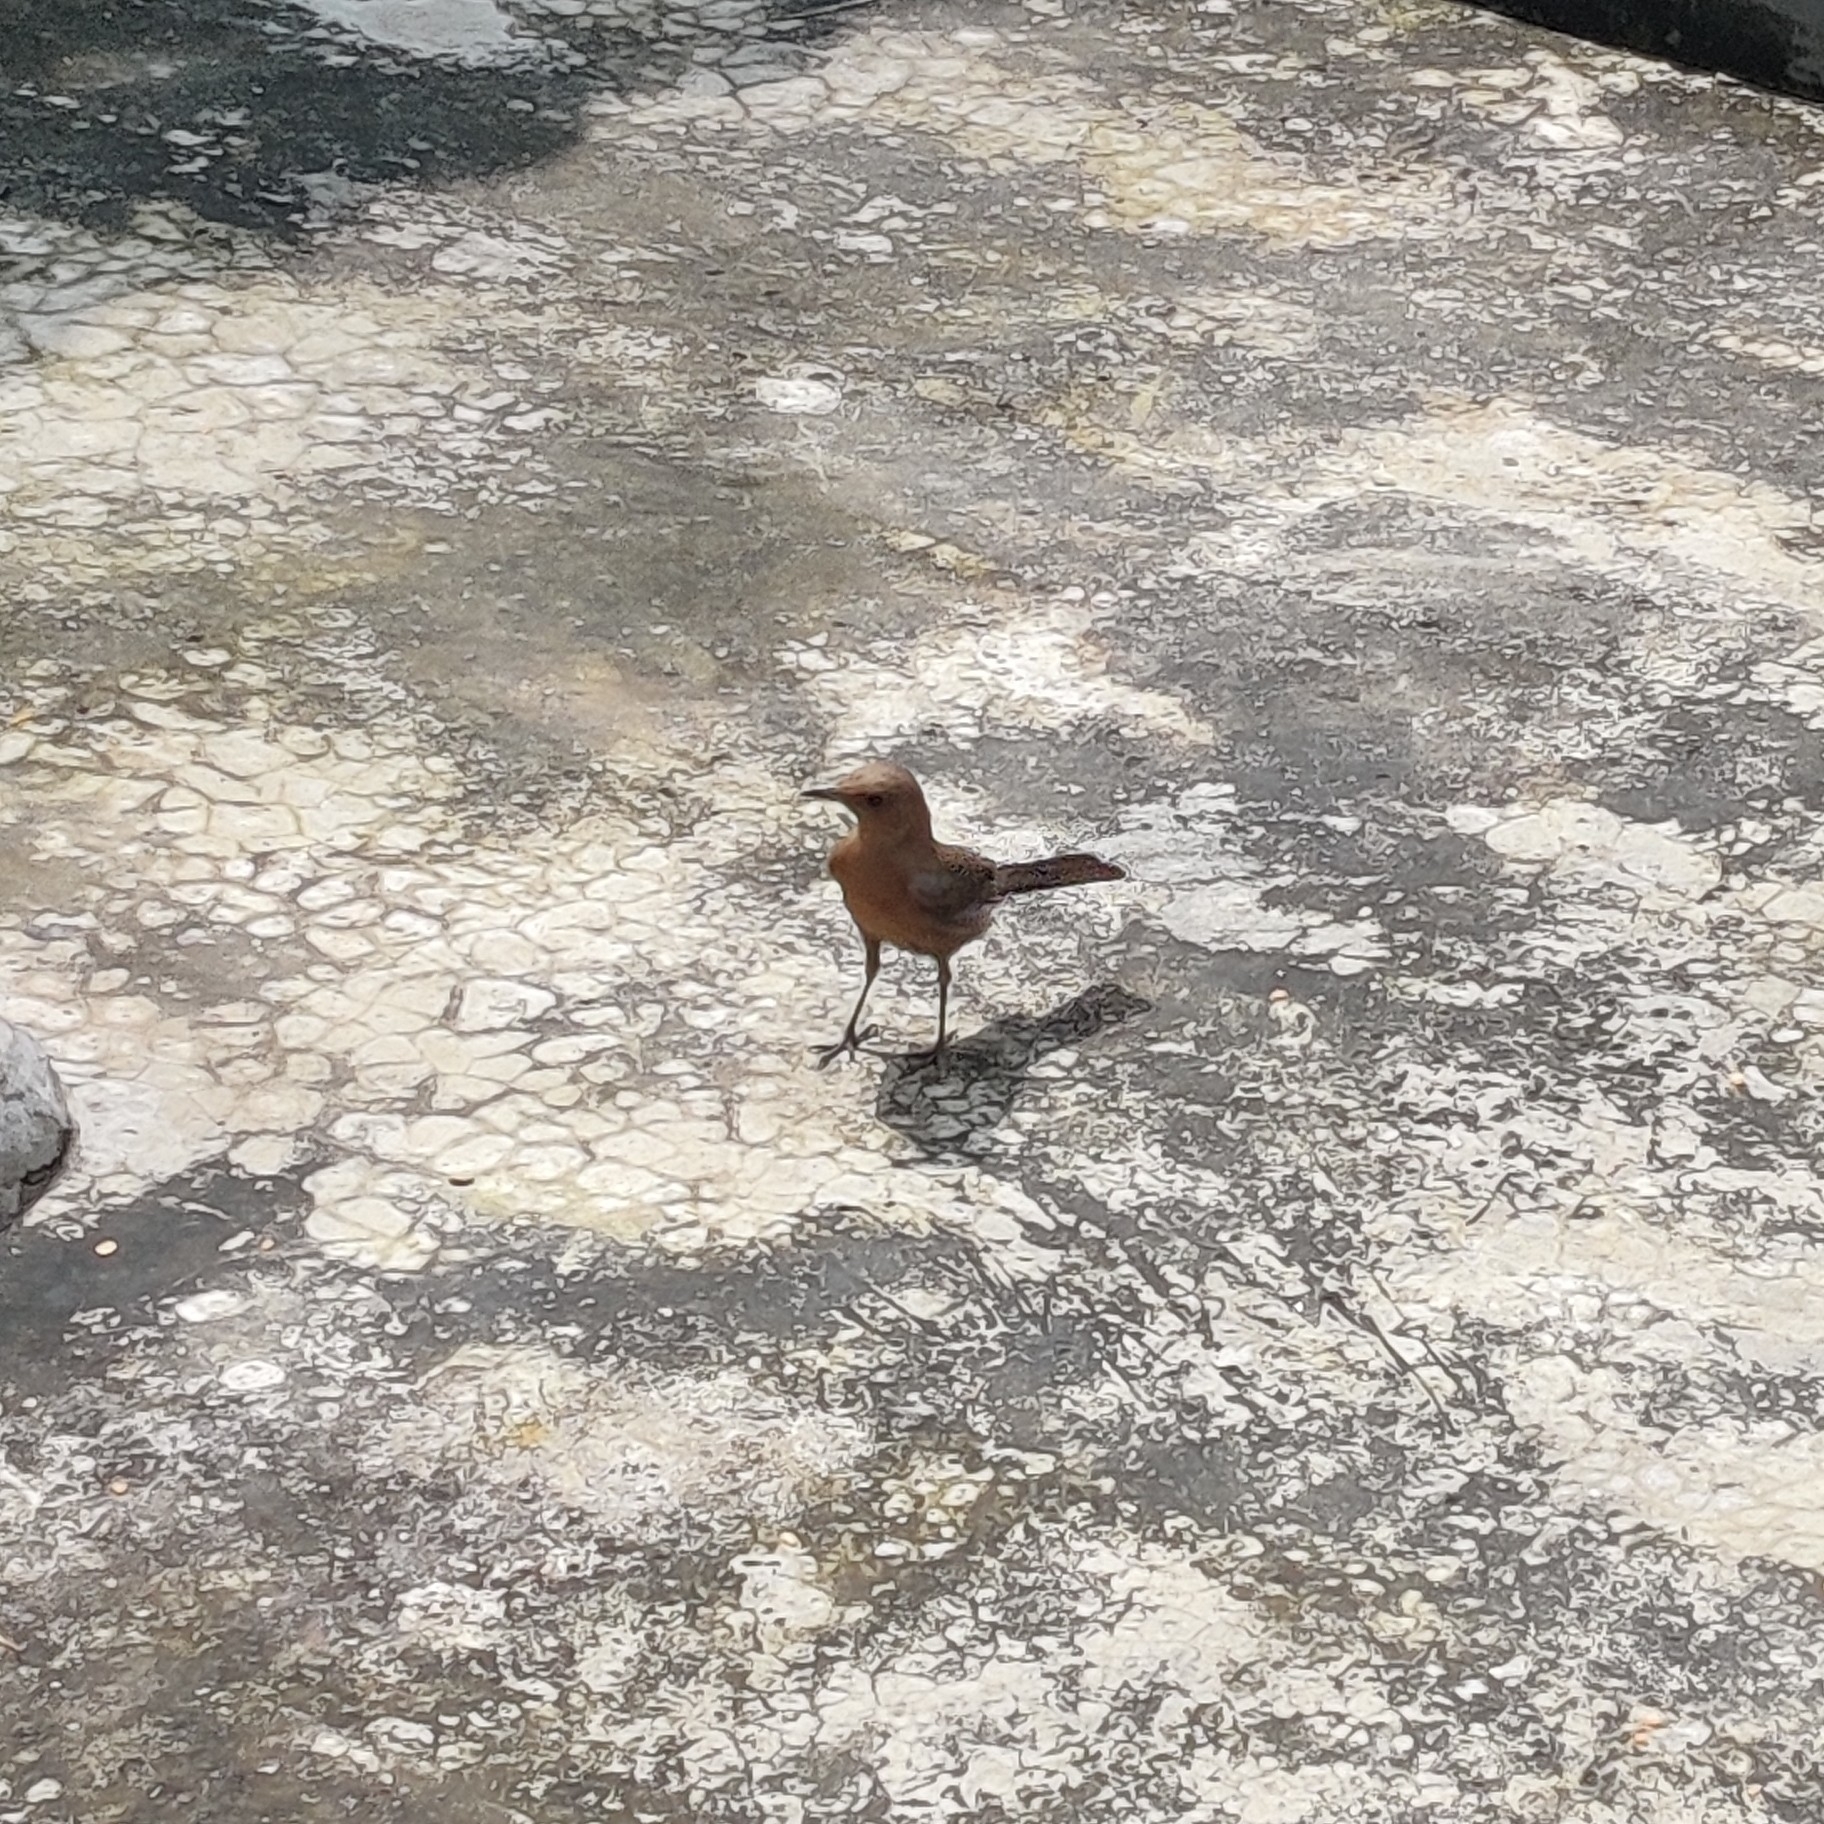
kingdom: Animalia
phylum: Chordata
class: Aves
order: Passeriformes
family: Muscicapidae
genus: Oenanthe
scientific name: Oenanthe fusca
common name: Brown rock chat
